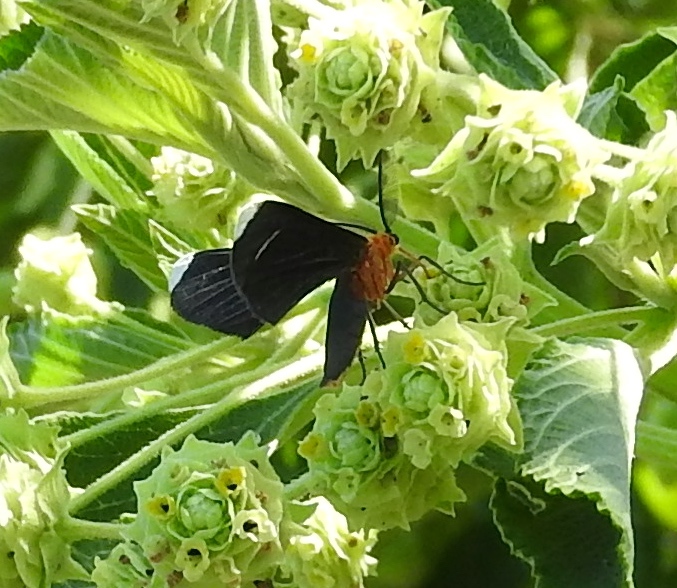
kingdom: Animalia
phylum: Arthropoda
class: Insecta
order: Lepidoptera
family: Geometridae
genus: Melanchroia
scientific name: Melanchroia chephise
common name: White-tipped black
